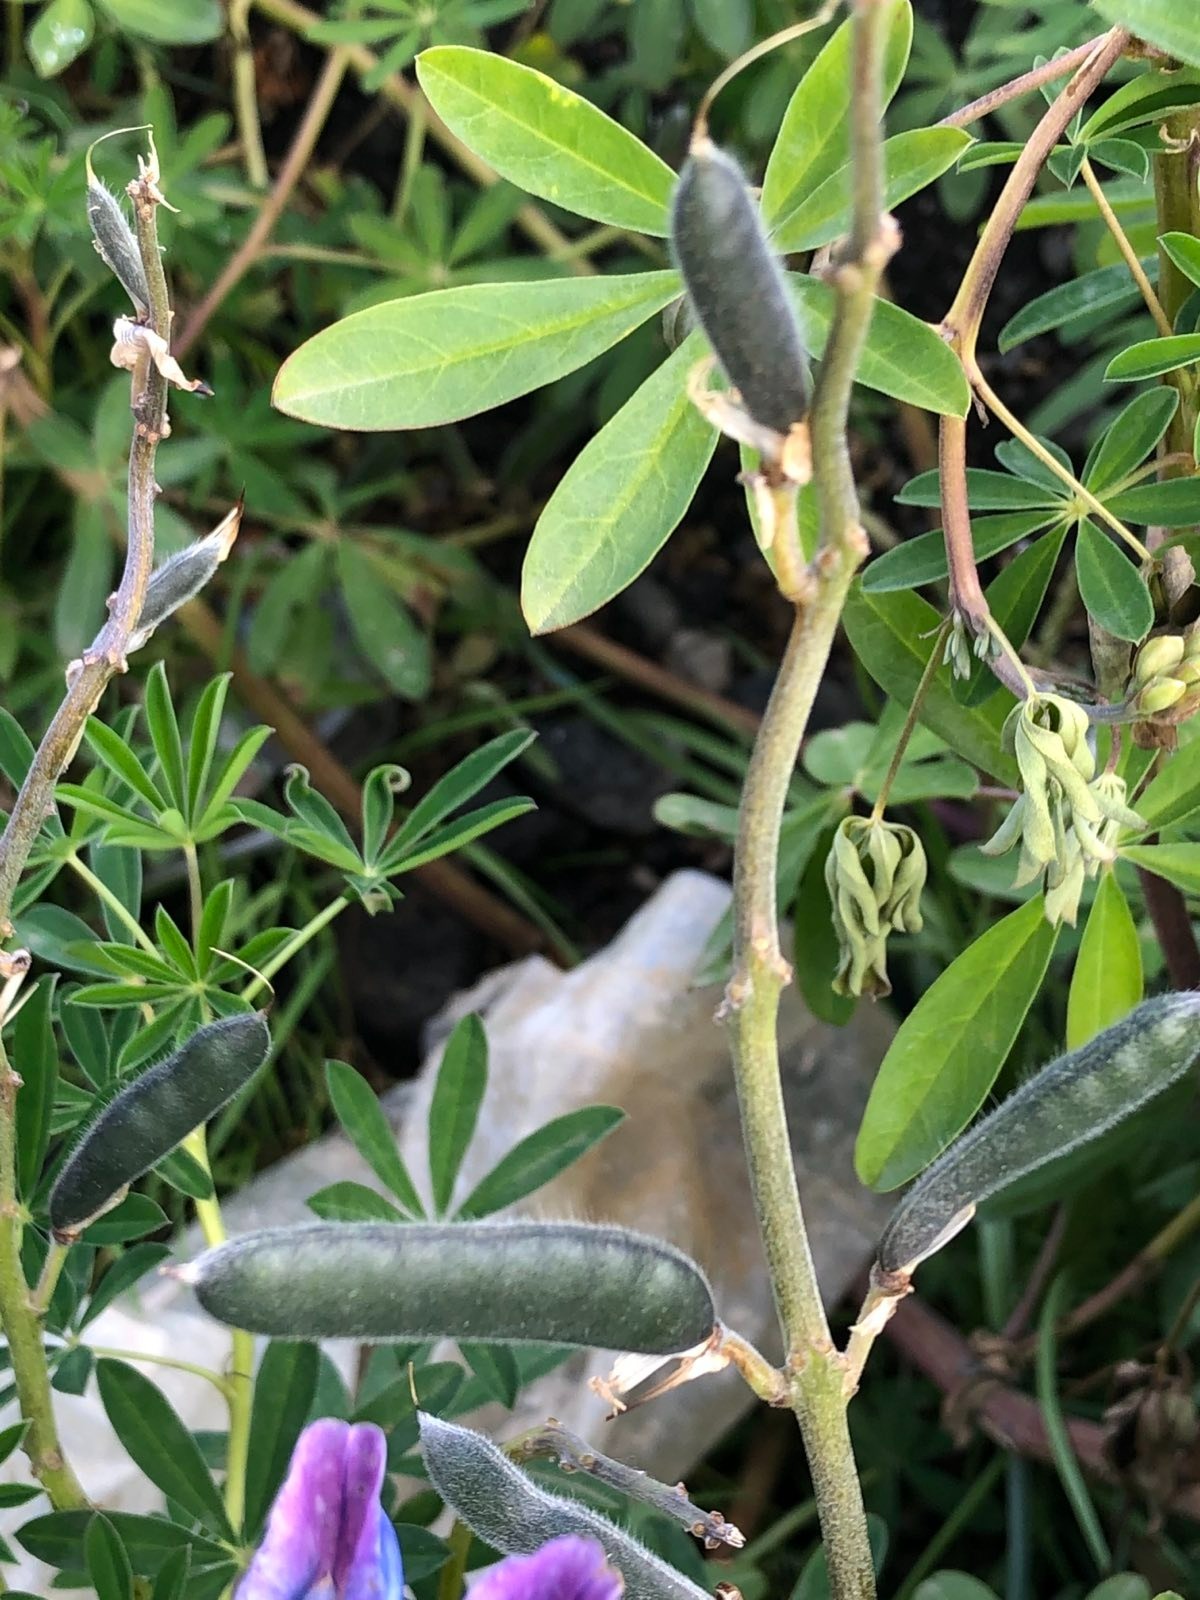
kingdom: Plantae
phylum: Tracheophyta
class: Magnoliopsida
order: Fabales
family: Fabaceae
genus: Lupinus
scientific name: Lupinus nootkatensis
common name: Nootka lupine
